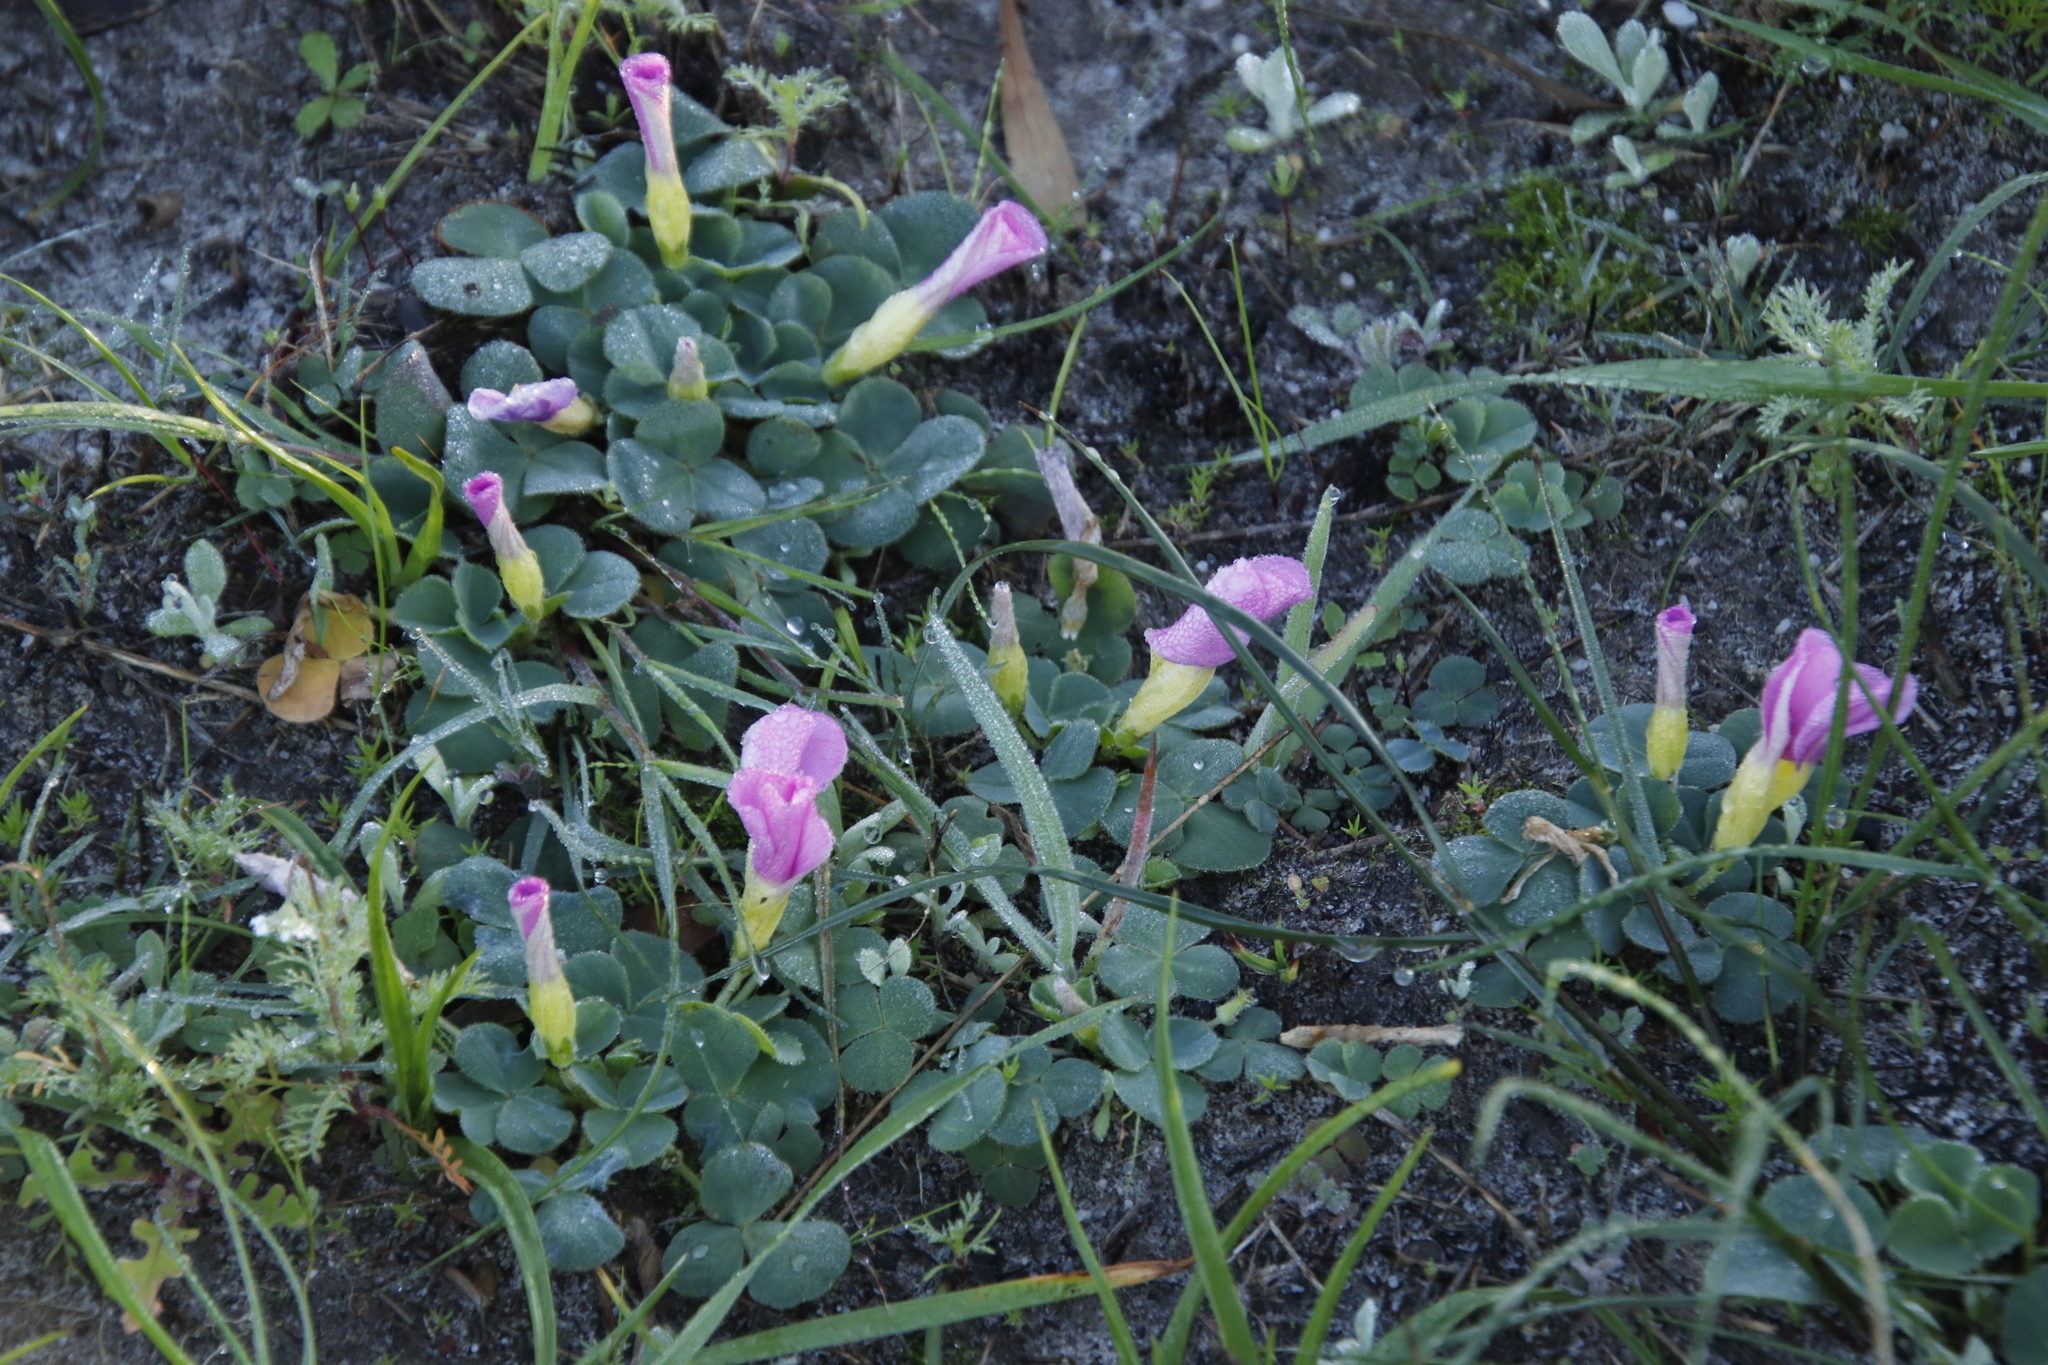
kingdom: Plantae
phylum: Tracheophyta
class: Magnoliopsida
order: Oxalidales
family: Oxalidaceae
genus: Oxalis
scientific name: Oxalis purpurea
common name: Purple woodsorrel
